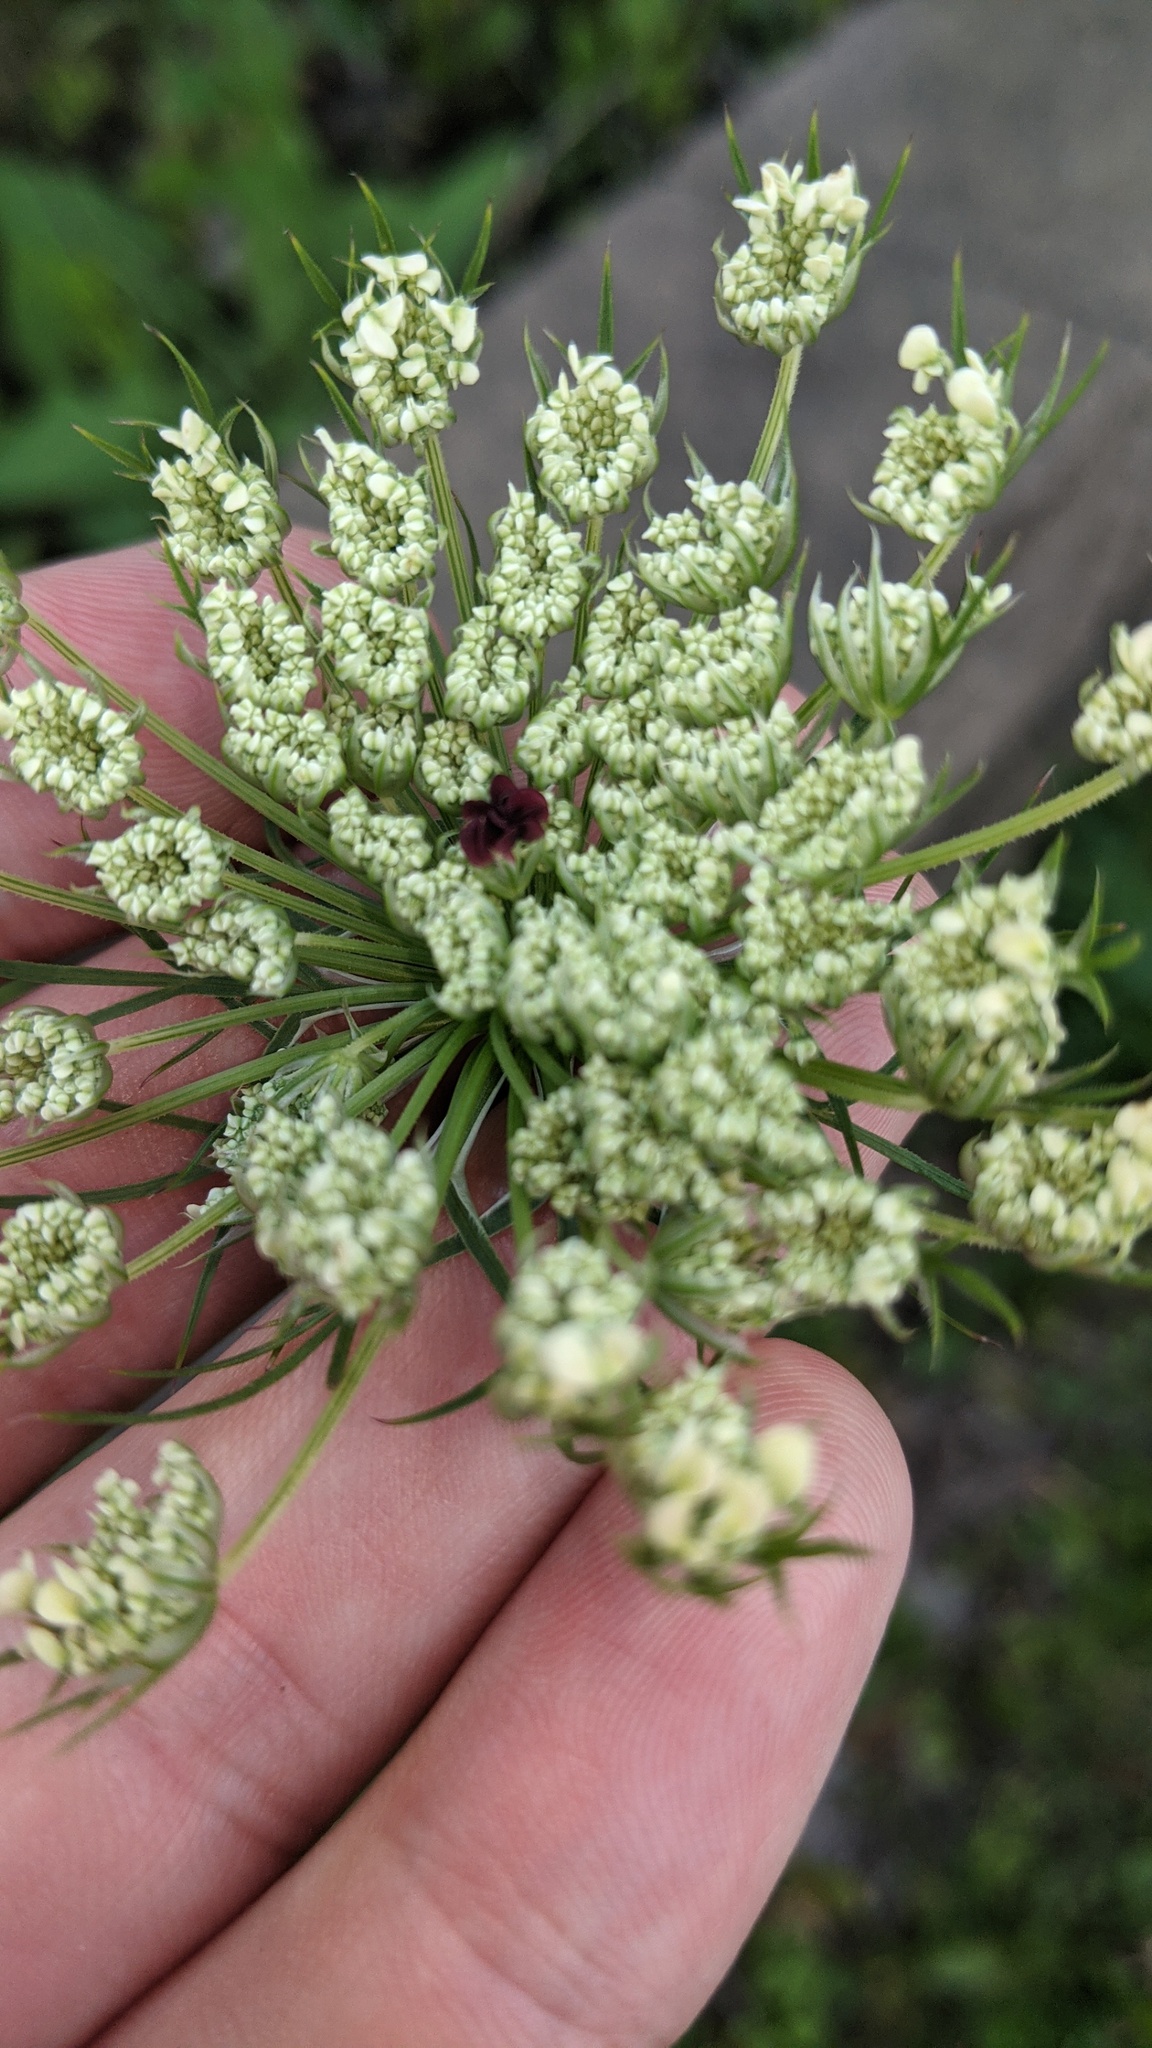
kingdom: Plantae
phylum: Tracheophyta
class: Magnoliopsida
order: Apiales
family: Apiaceae
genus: Daucus
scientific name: Daucus carota
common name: Wild carrot
